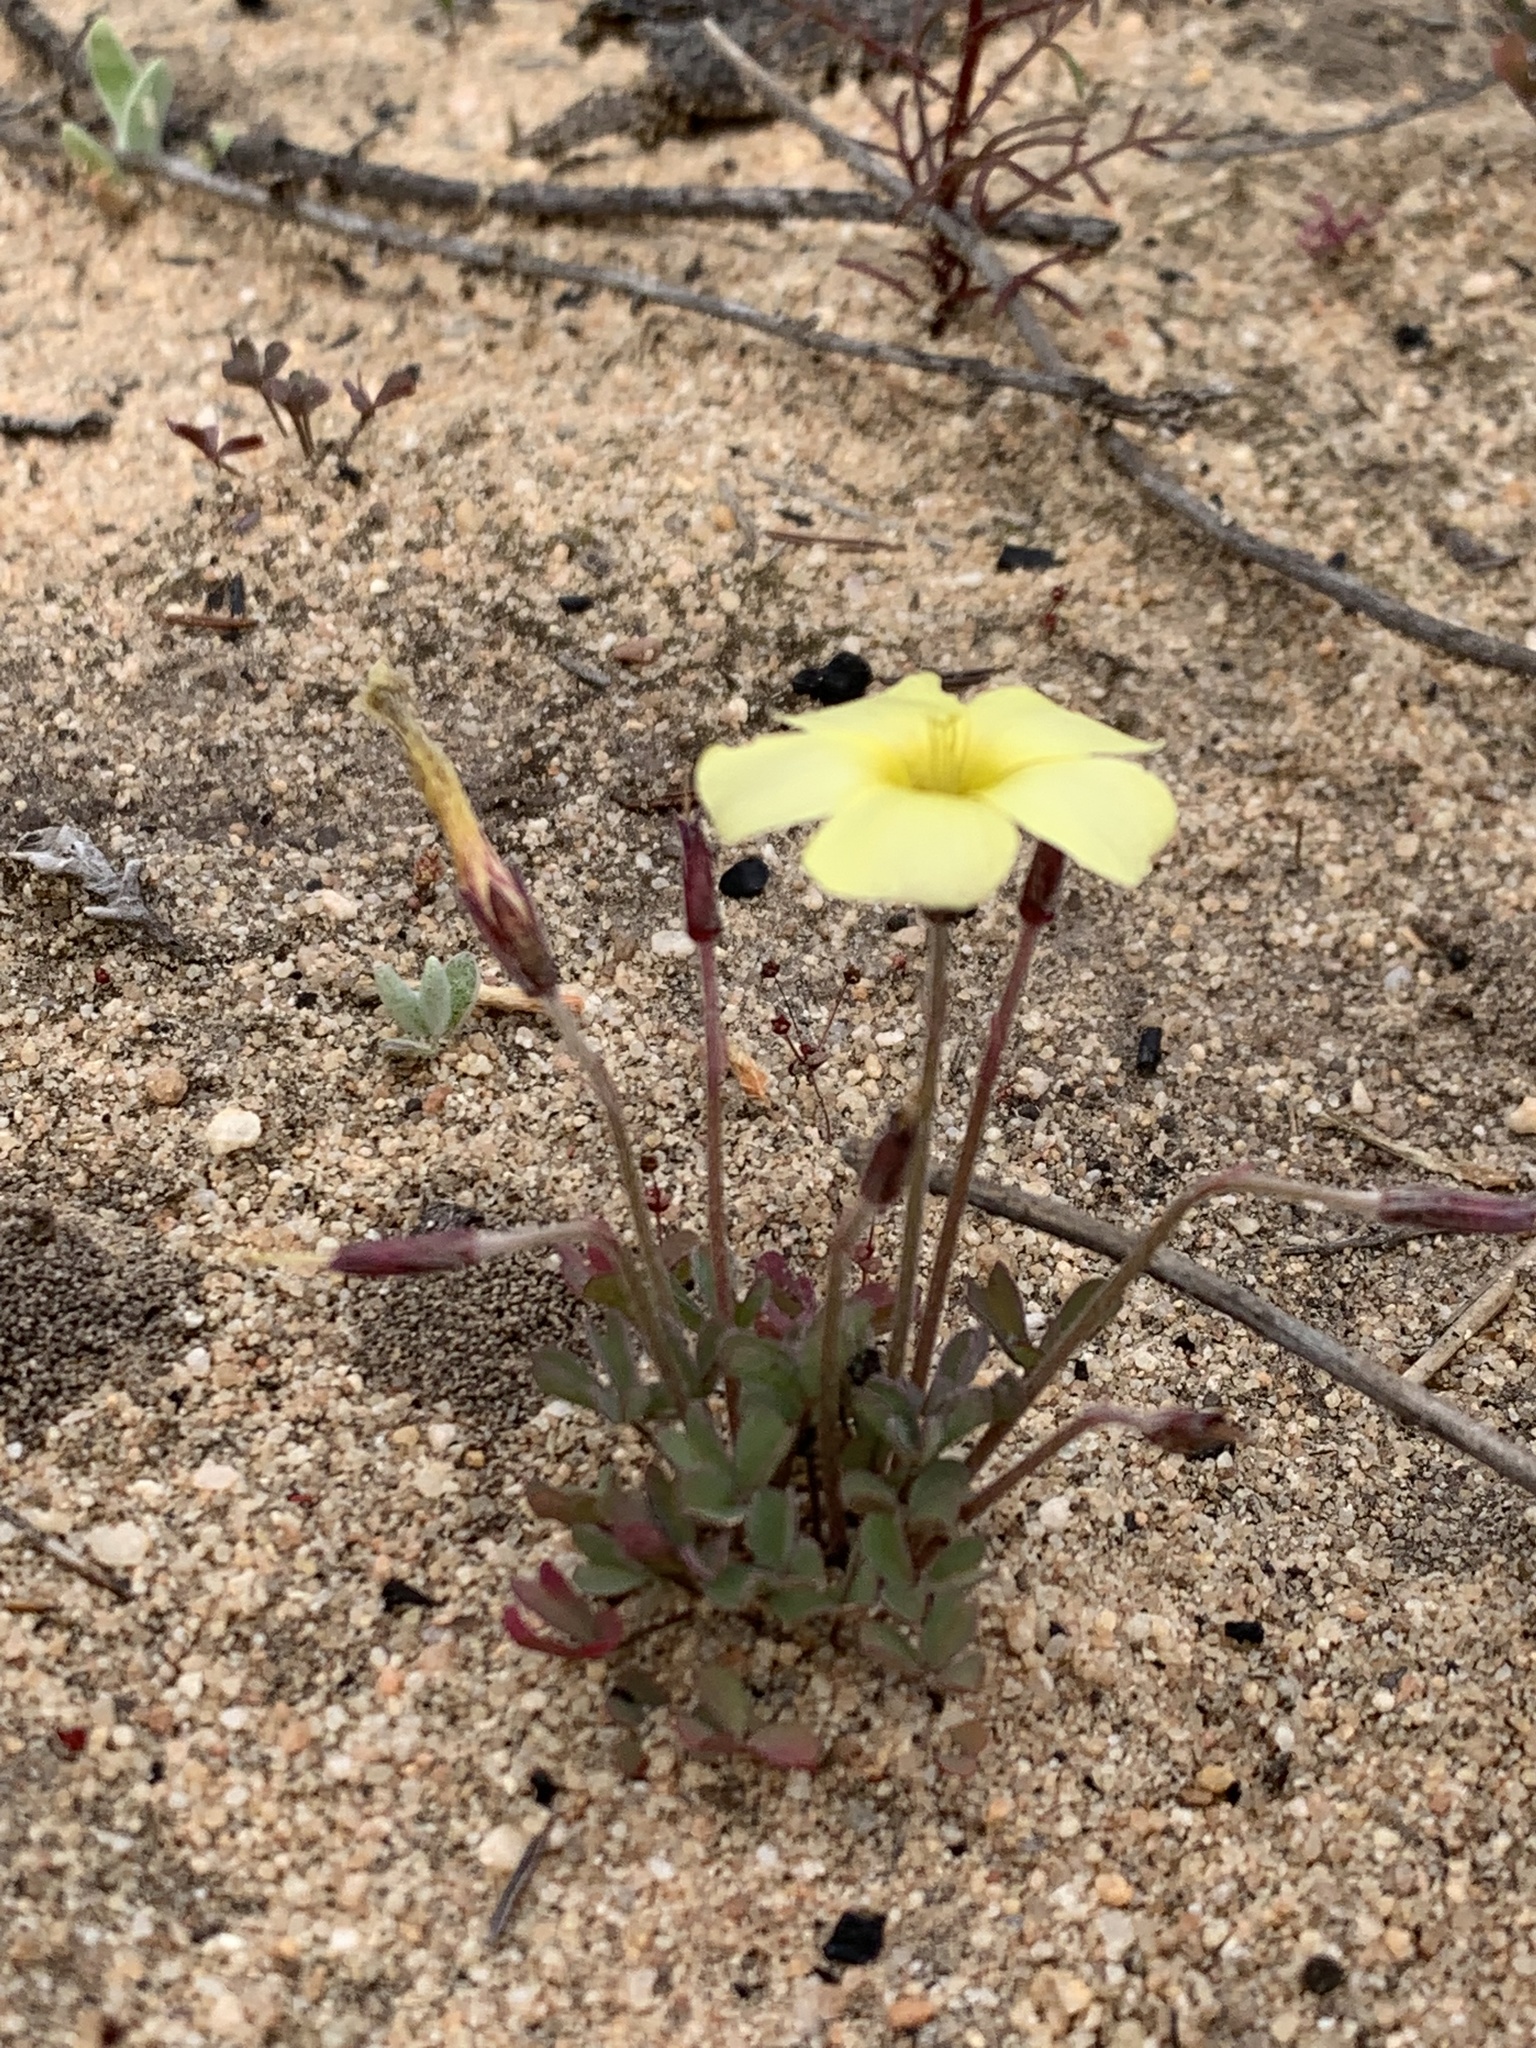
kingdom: Plantae
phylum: Tracheophyta
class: Magnoliopsida
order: Oxalidales
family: Oxalidaceae
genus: Oxalis
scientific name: Oxalis obtusa
